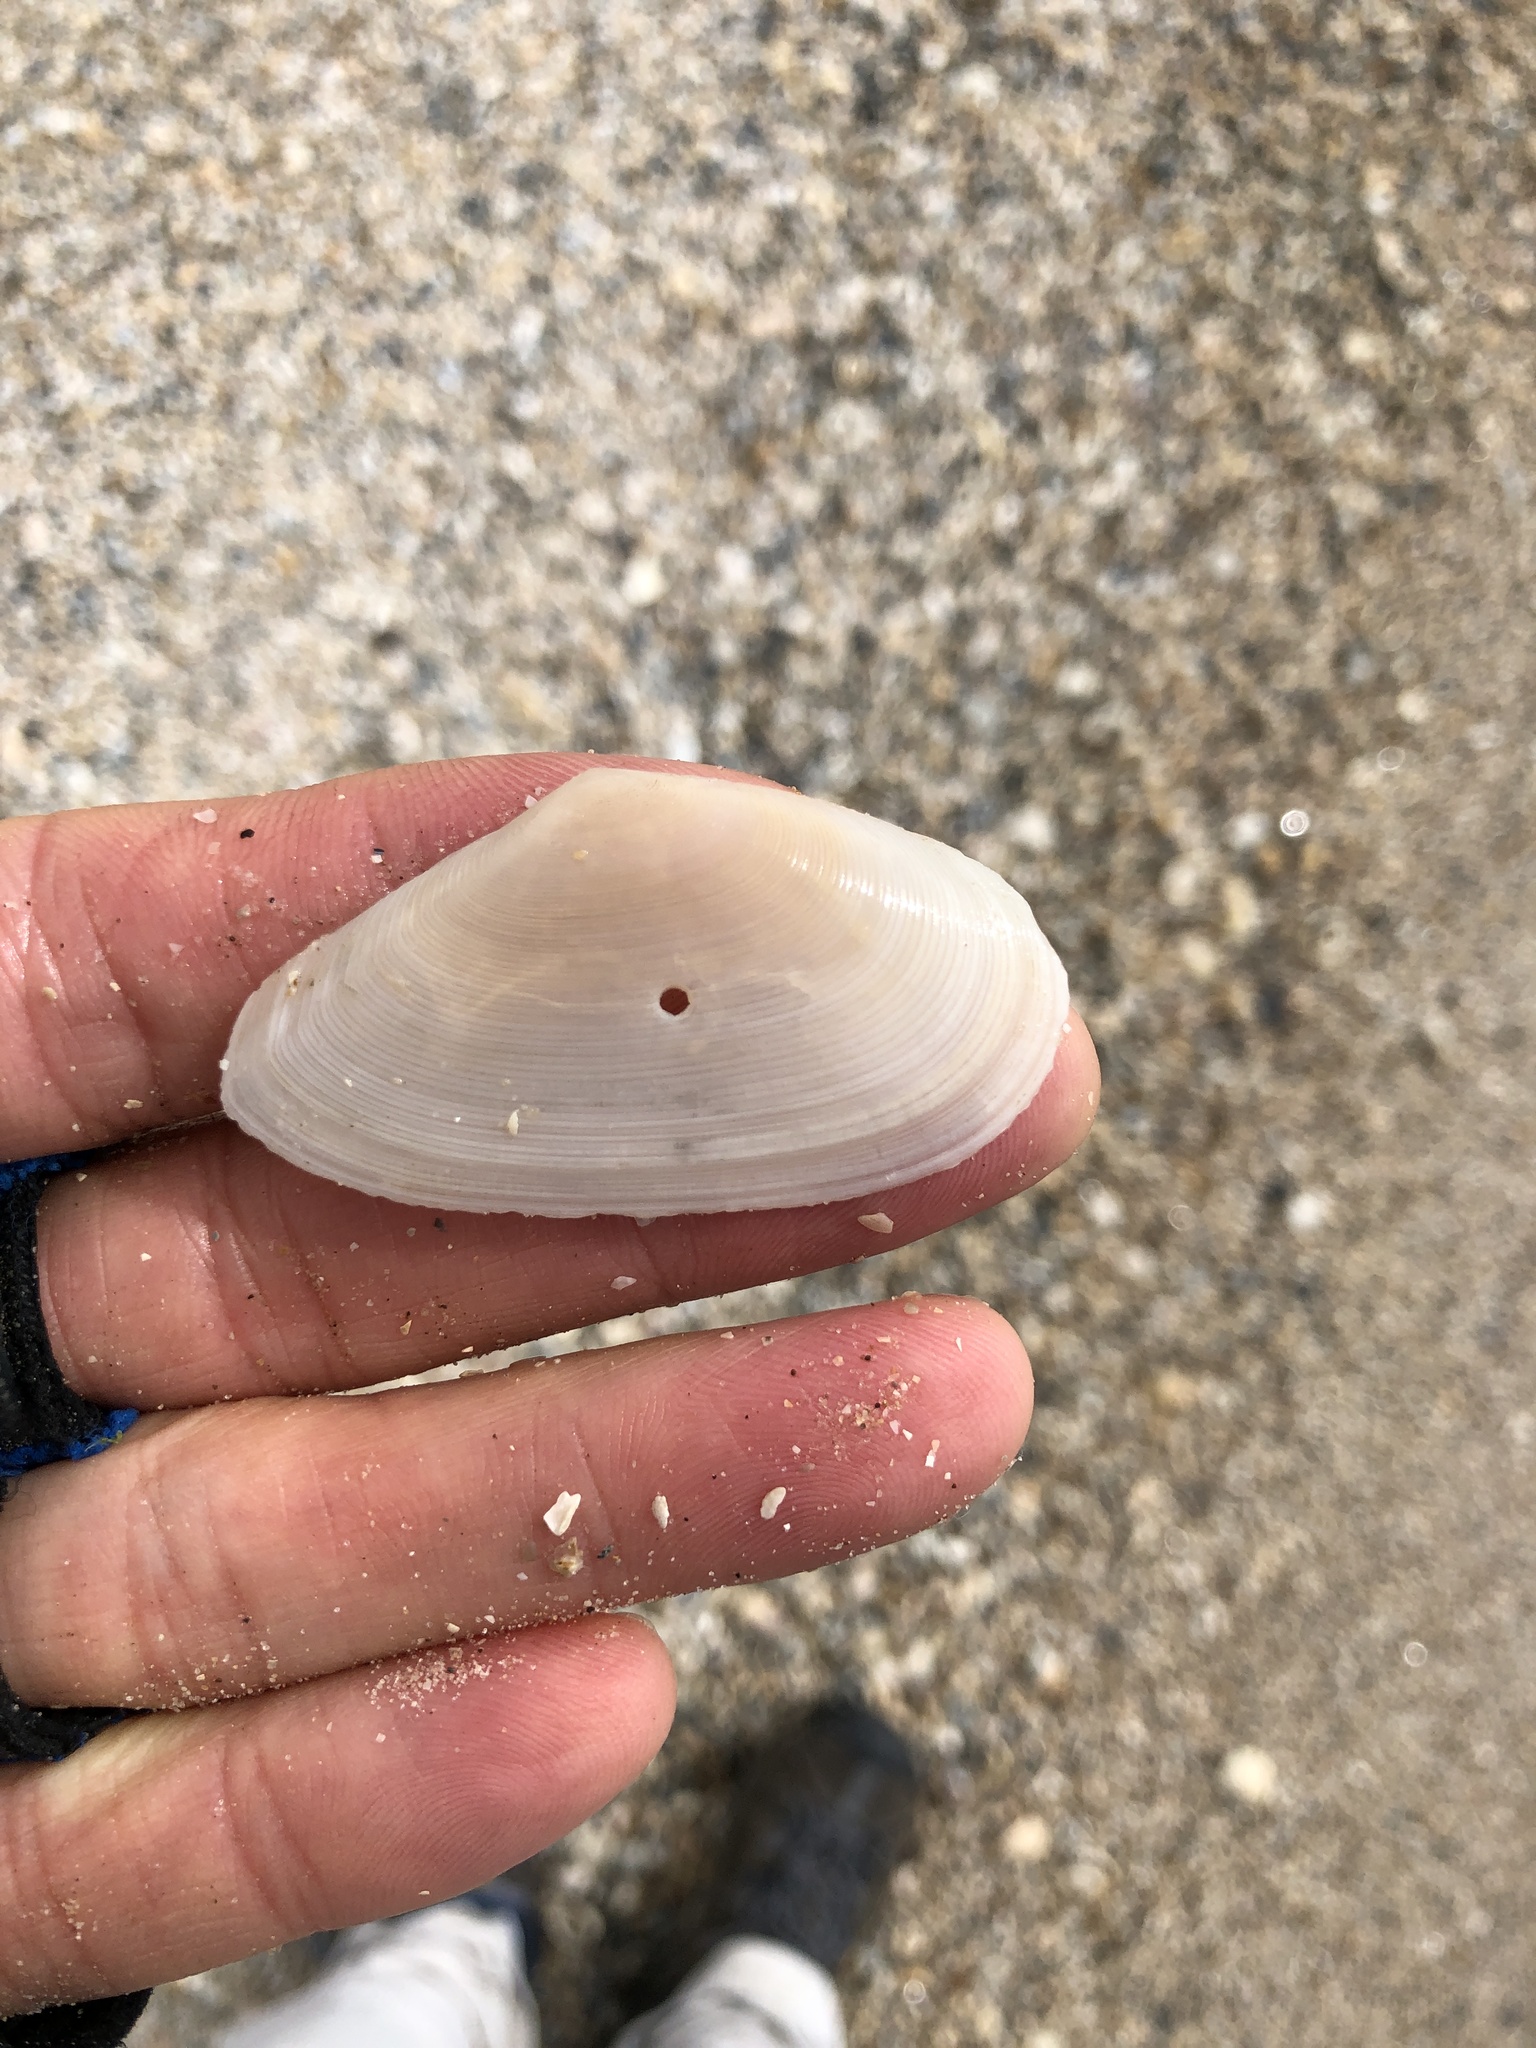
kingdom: Animalia
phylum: Mollusca
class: Bivalvia
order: Cardiida
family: Tellinidae
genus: Eurytellina
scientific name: Eurytellina alternata
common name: Alternate tellin
